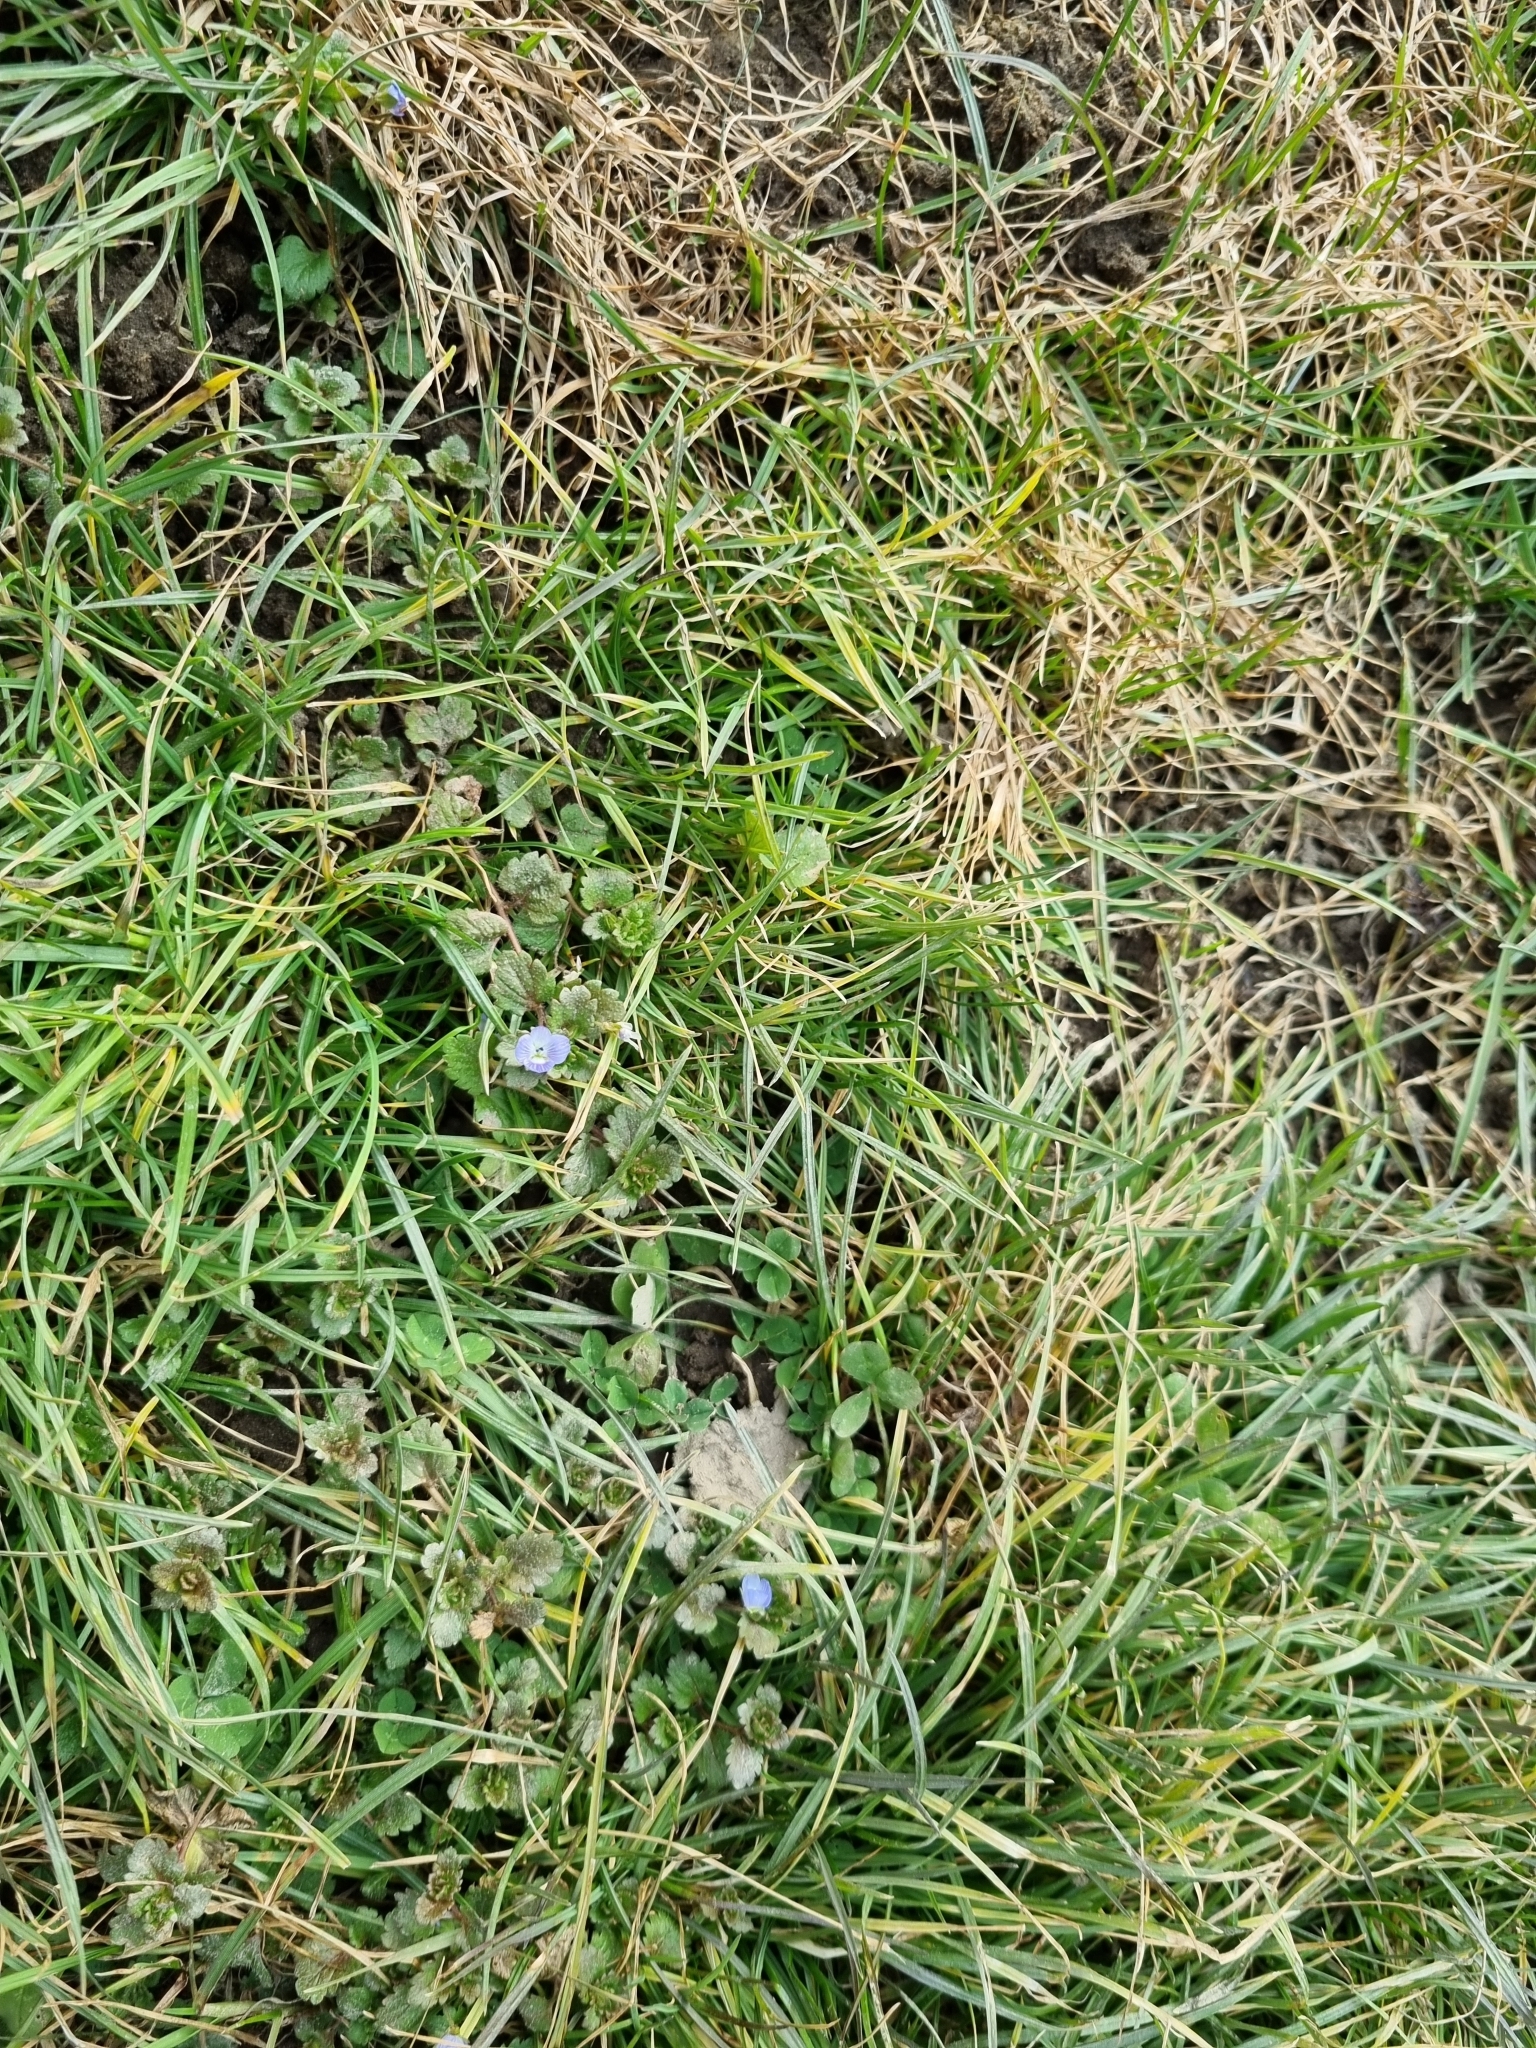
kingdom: Plantae
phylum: Tracheophyta
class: Magnoliopsida
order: Lamiales
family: Plantaginaceae
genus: Veronica
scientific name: Veronica persica
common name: Common field-speedwell
